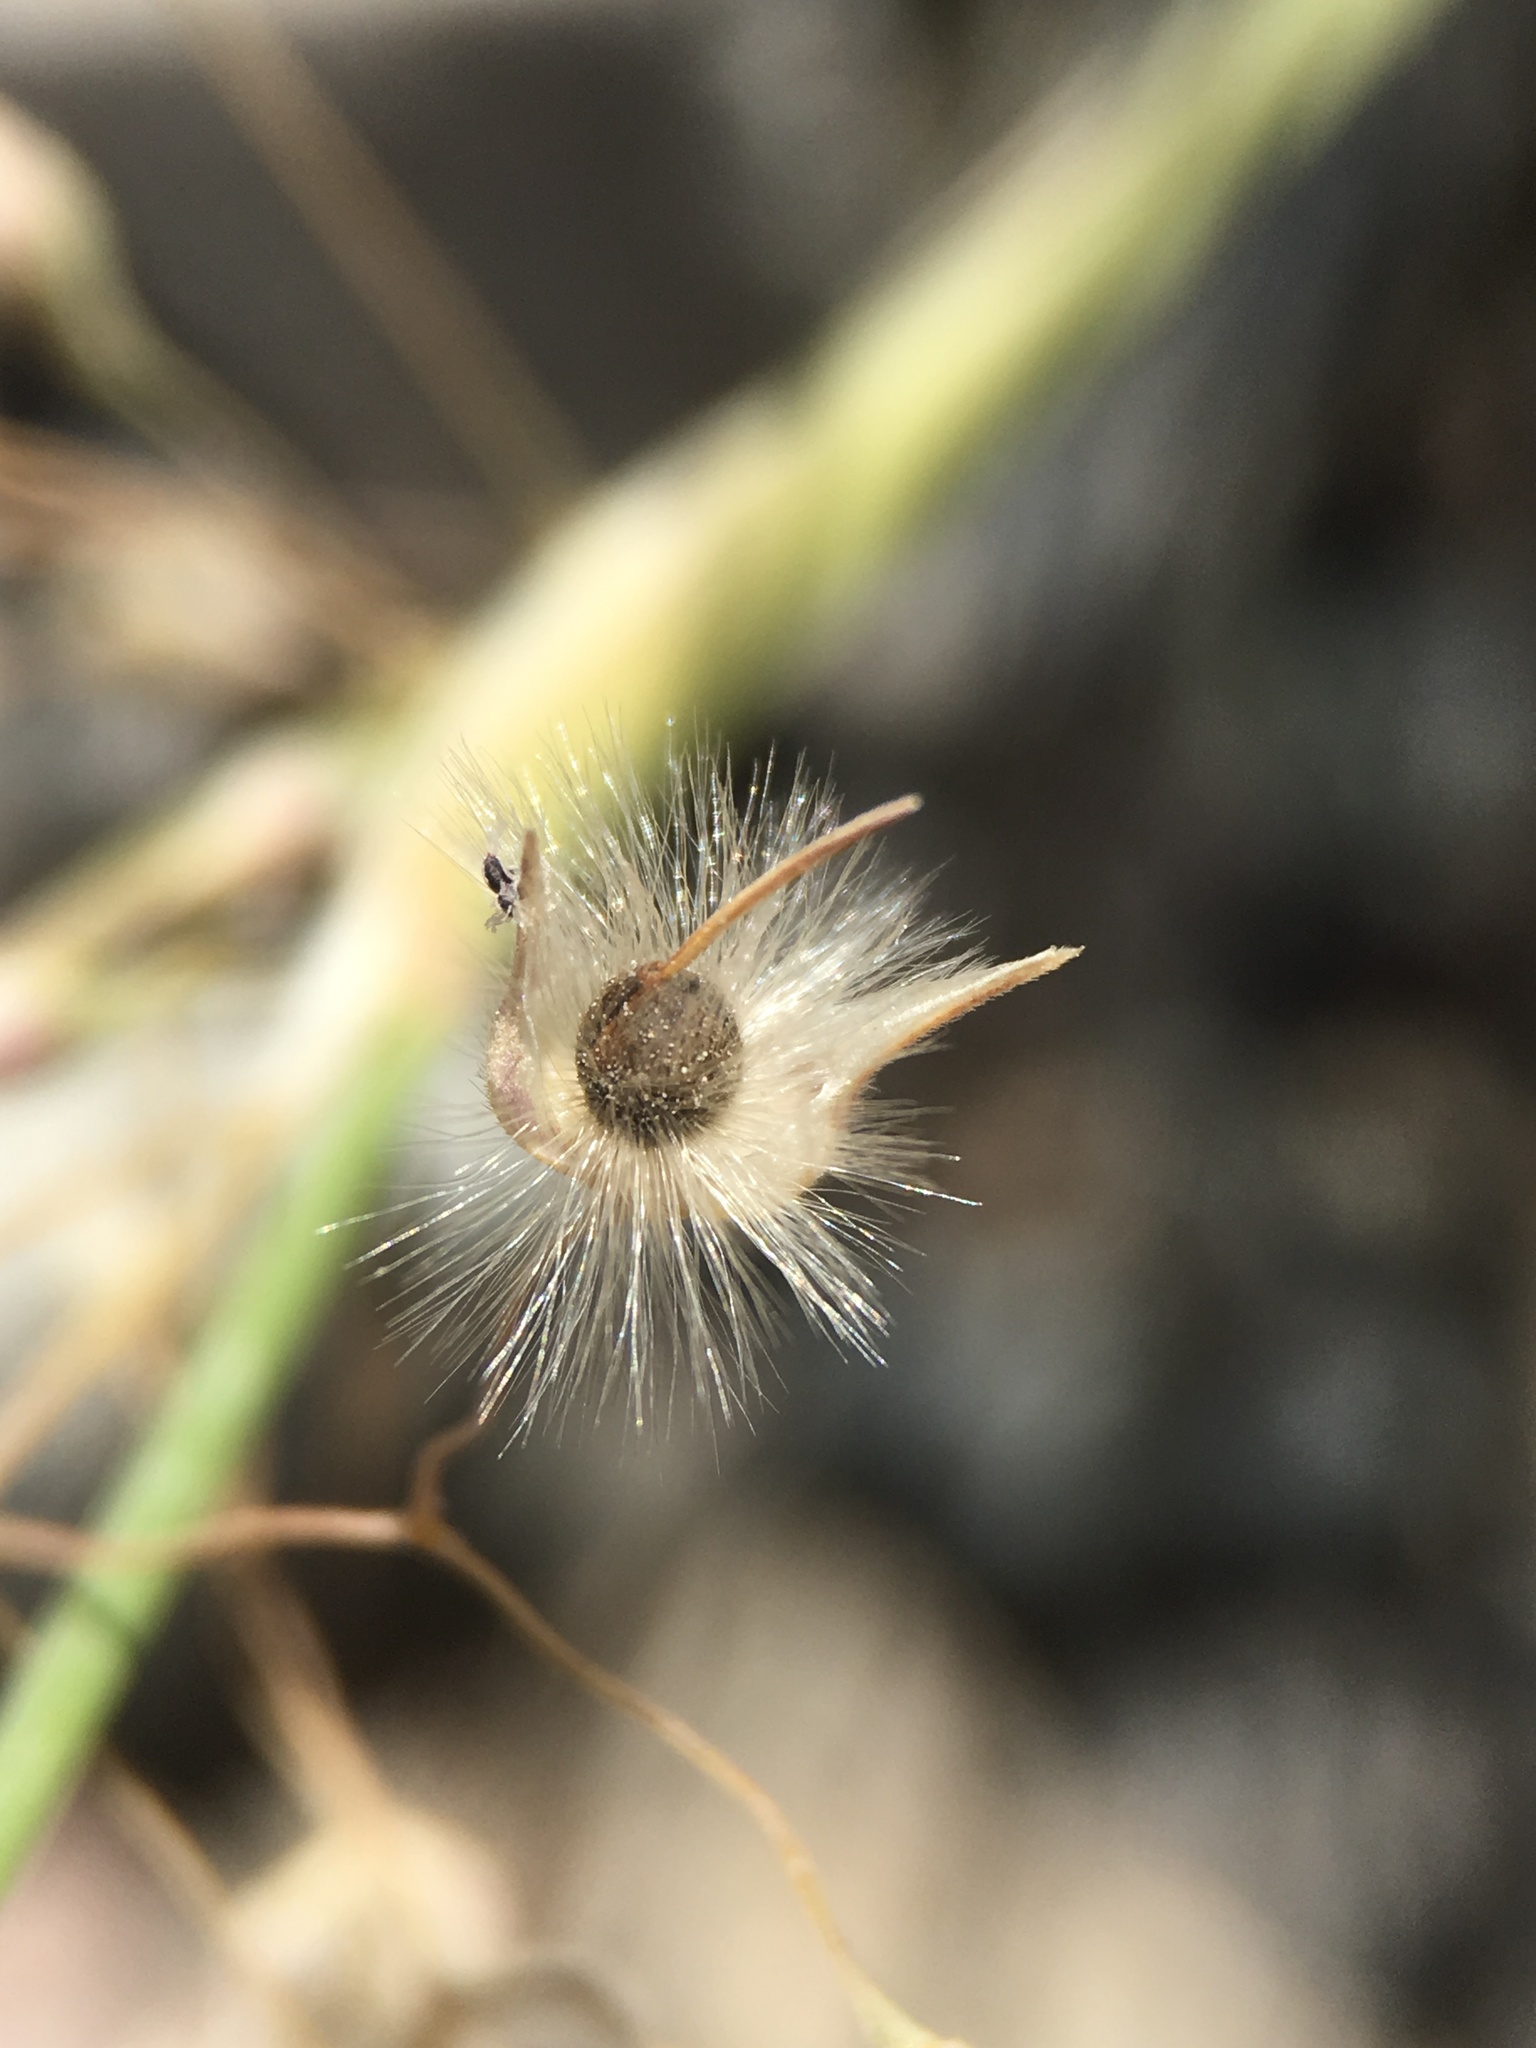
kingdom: Plantae
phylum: Tracheophyta
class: Liliopsida
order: Poales
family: Poaceae
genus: Eriocoma
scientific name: Eriocoma hymenoides
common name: Indian mountain ricegrass
